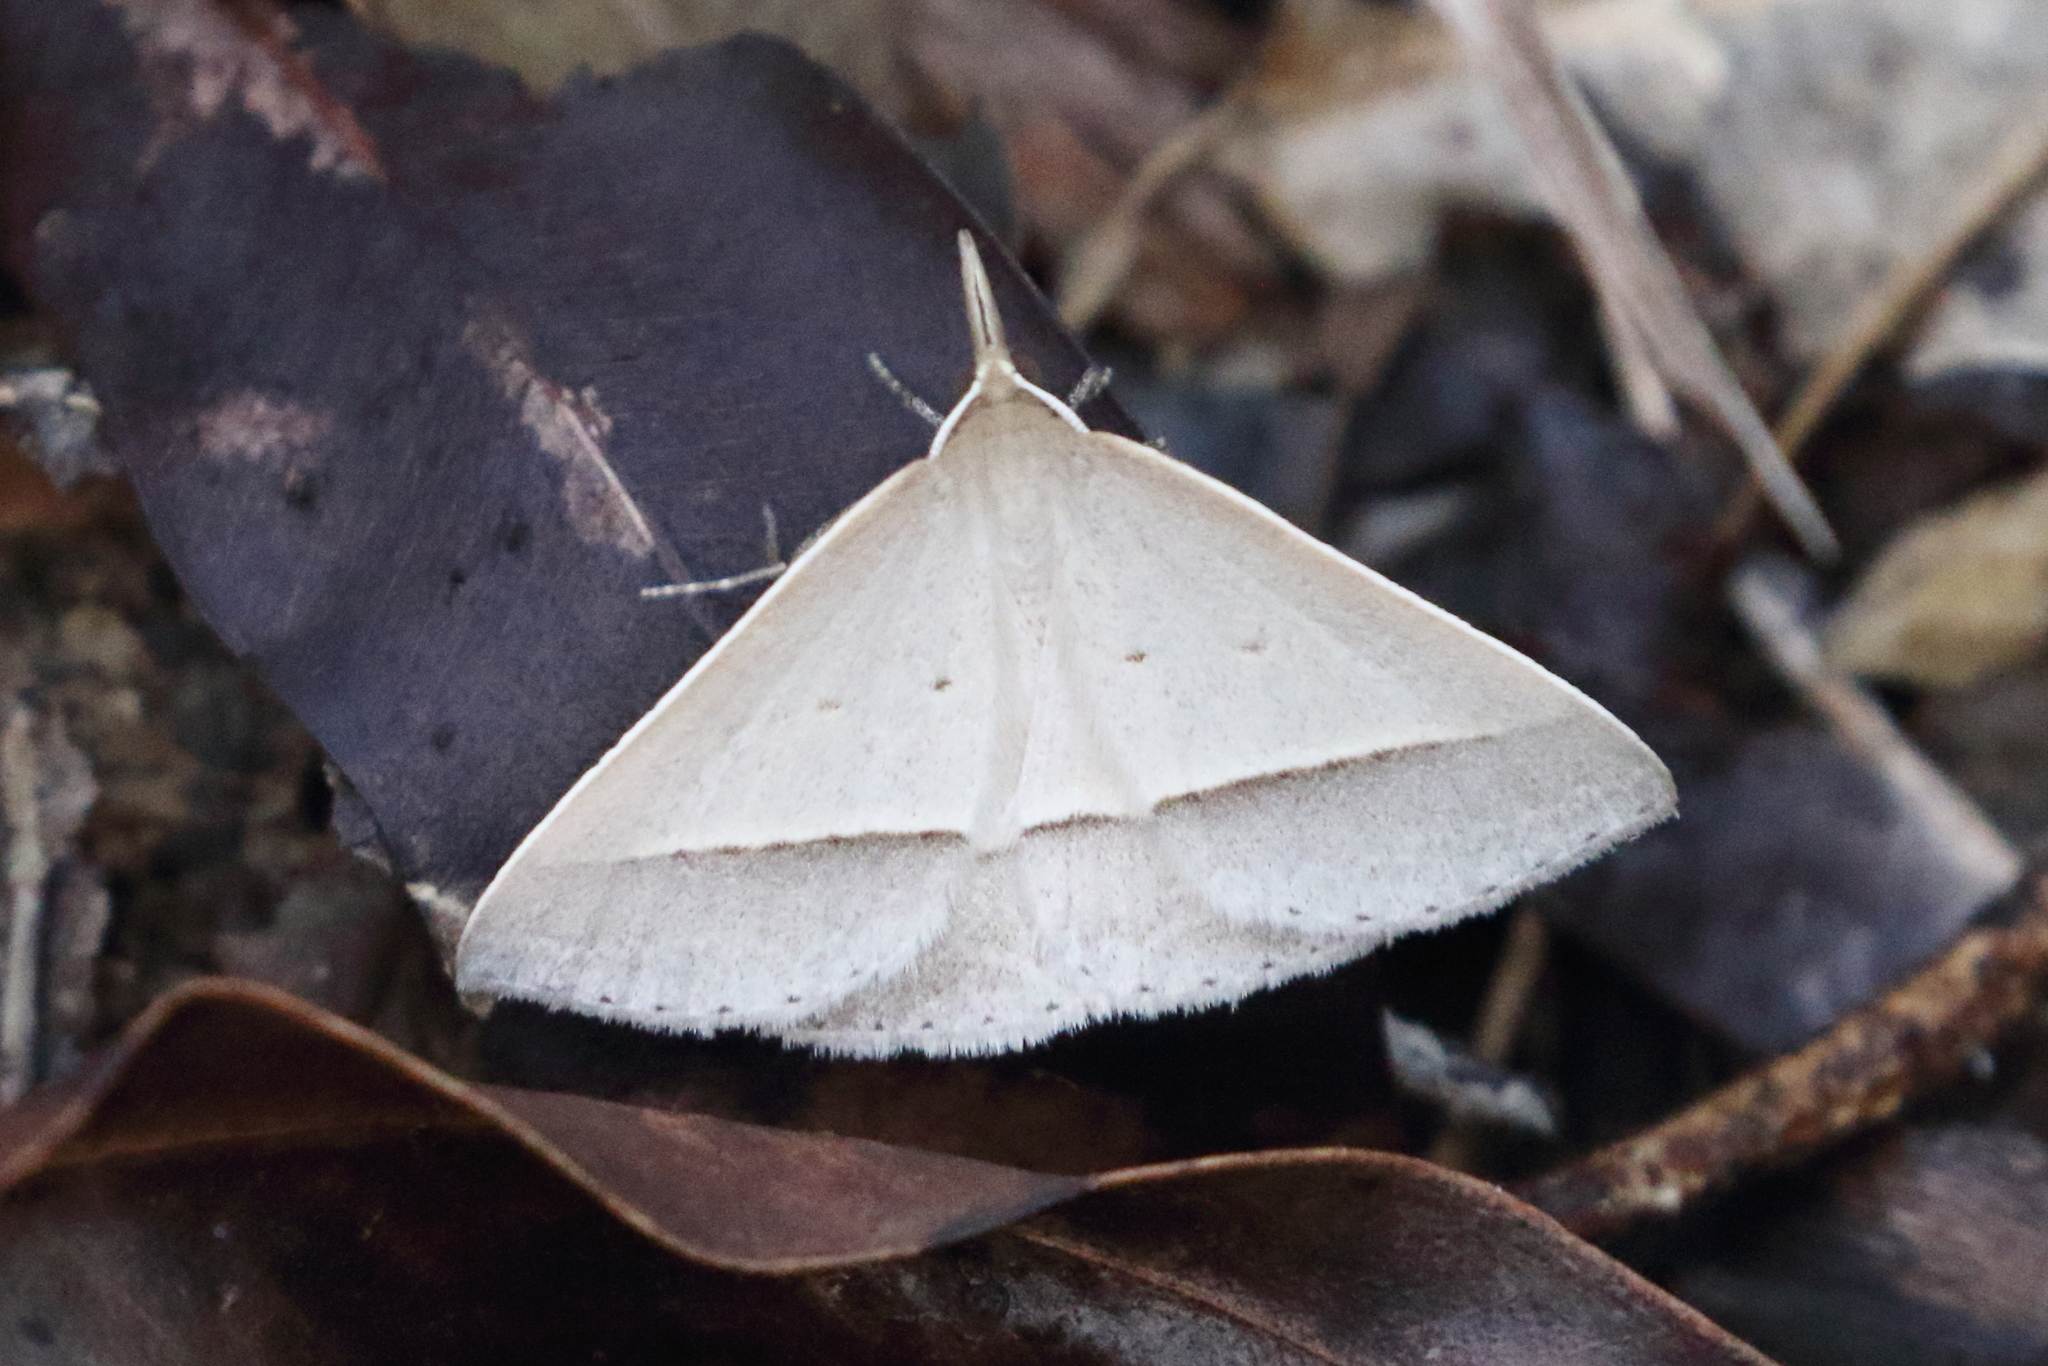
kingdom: Animalia
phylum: Arthropoda
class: Insecta
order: Lepidoptera
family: Geometridae
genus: Epidesmia
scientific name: Epidesmia perfabricata
